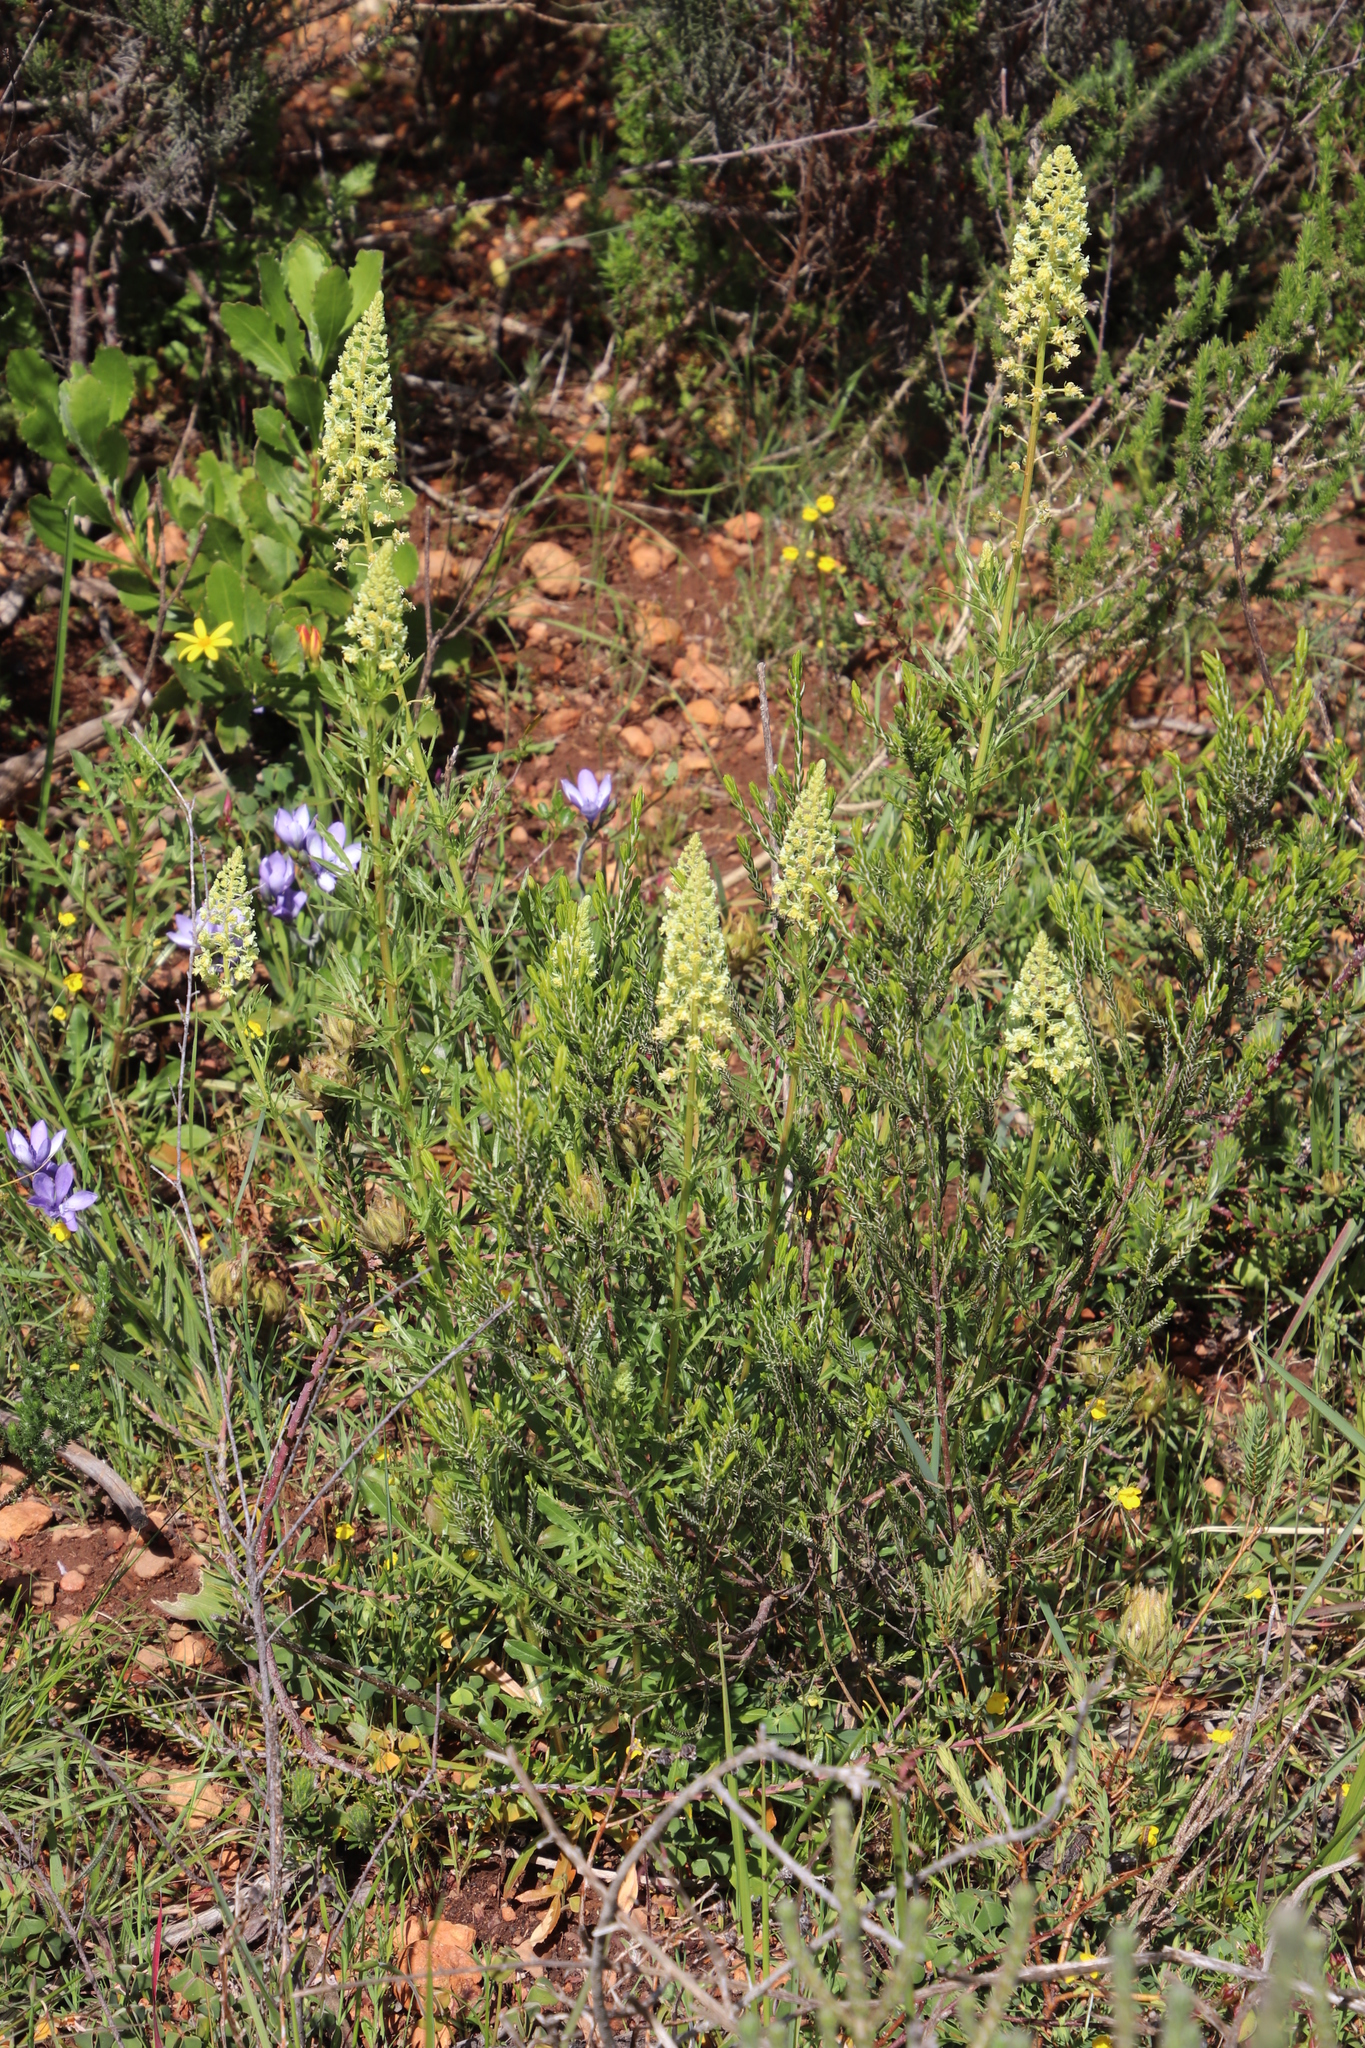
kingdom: Plantae
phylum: Tracheophyta
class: Magnoliopsida
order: Brassicales
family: Resedaceae
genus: Reseda
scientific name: Reseda lutea
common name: Wild mignonette
